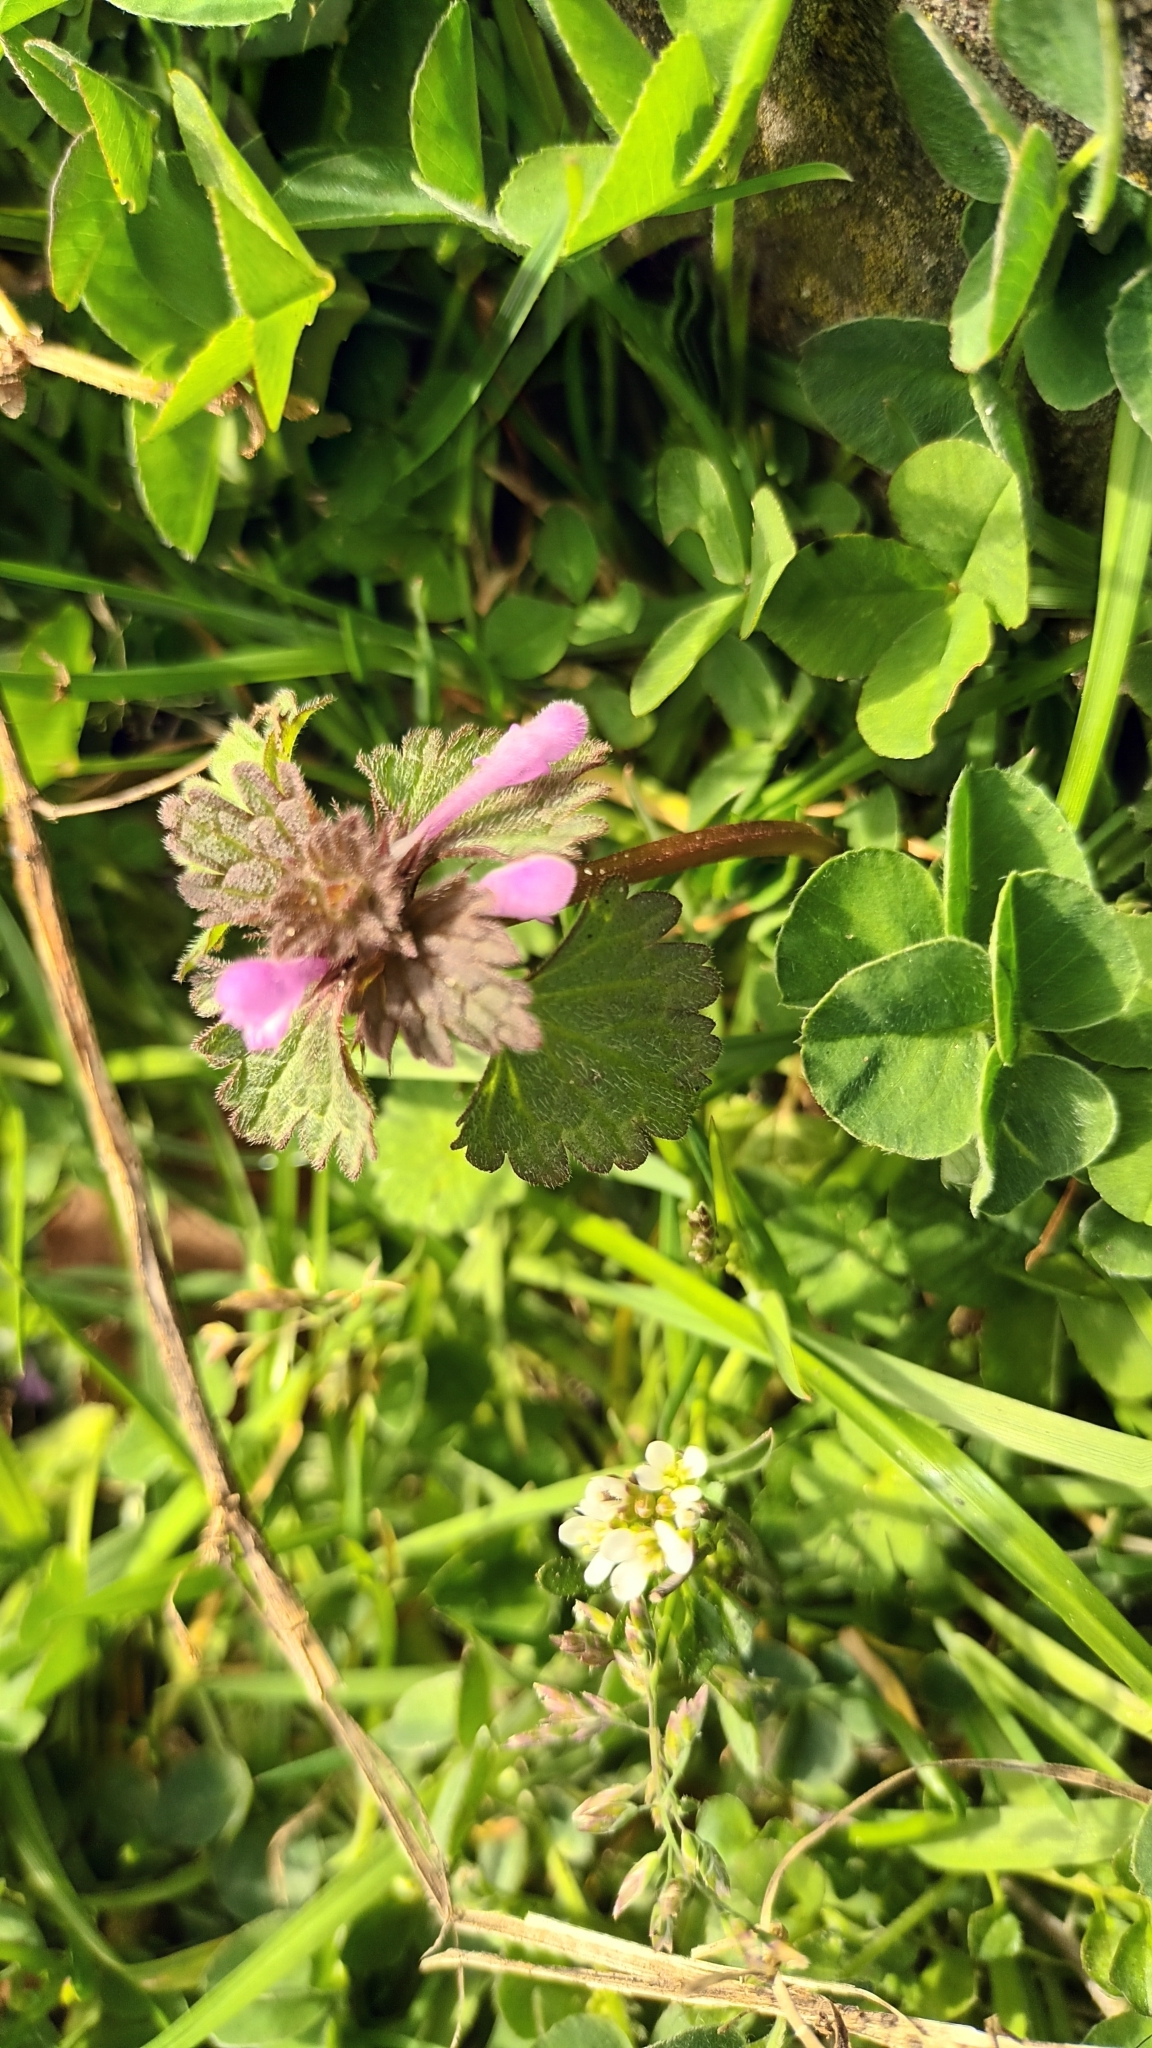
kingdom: Plantae
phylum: Tracheophyta
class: Magnoliopsida
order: Lamiales
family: Lamiaceae
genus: Lamium
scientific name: Lamium purpureum
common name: Red dead-nettle
